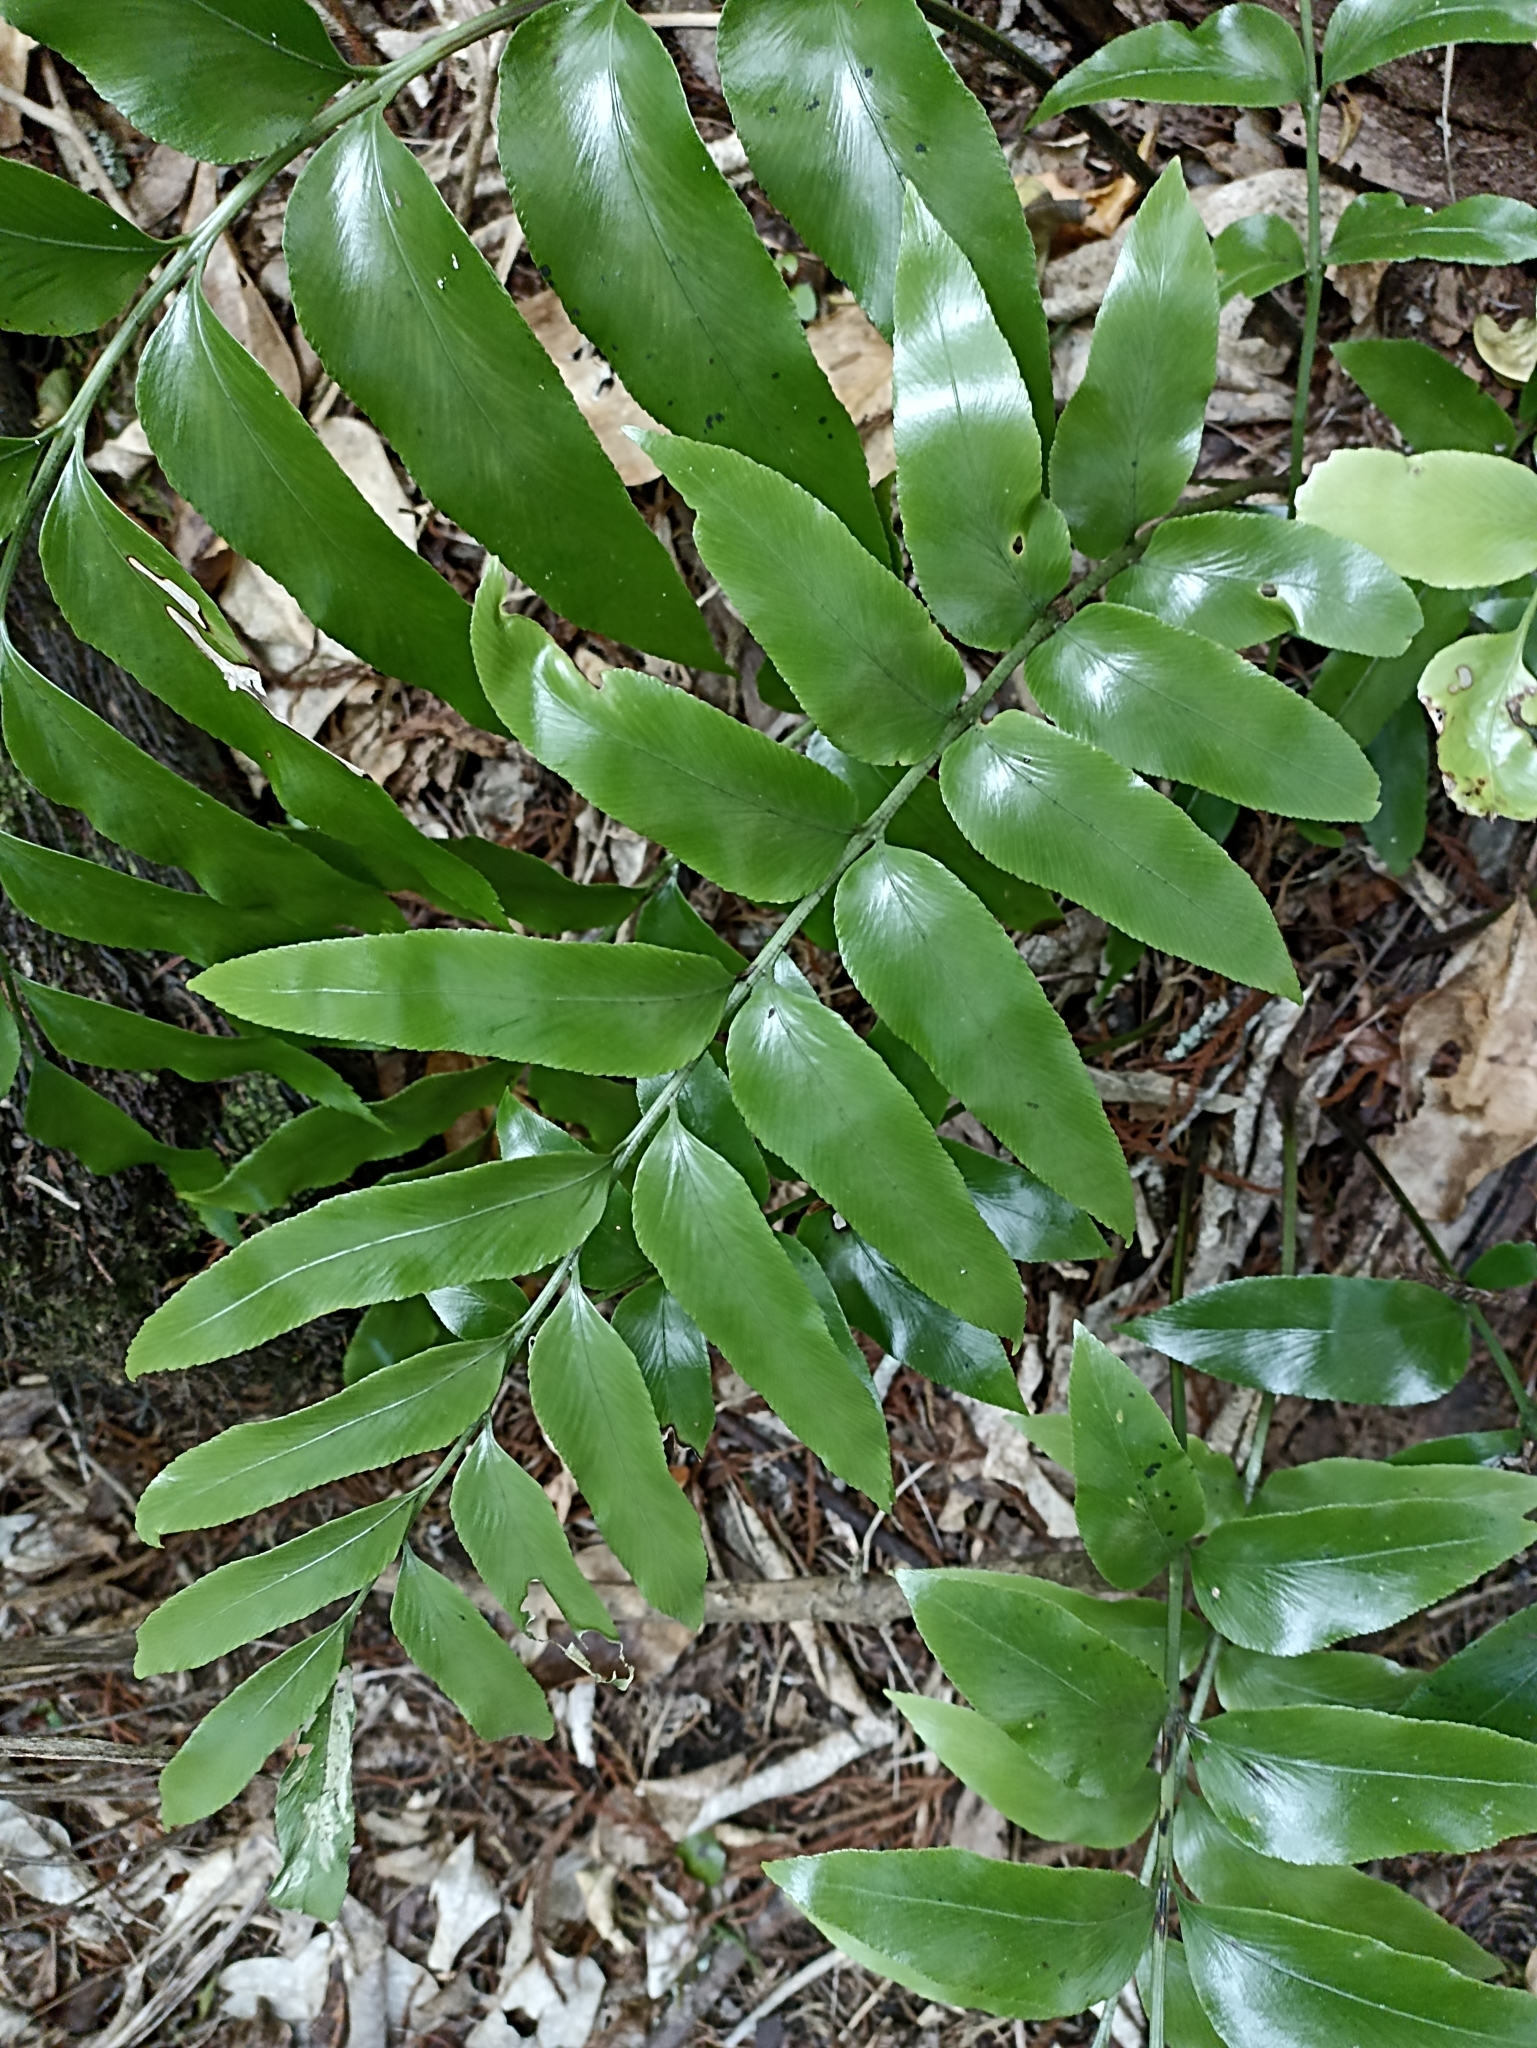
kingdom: Plantae
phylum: Tracheophyta
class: Polypodiopsida
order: Polypodiales
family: Aspleniaceae
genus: Asplenium
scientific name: Asplenium oblongifolium
